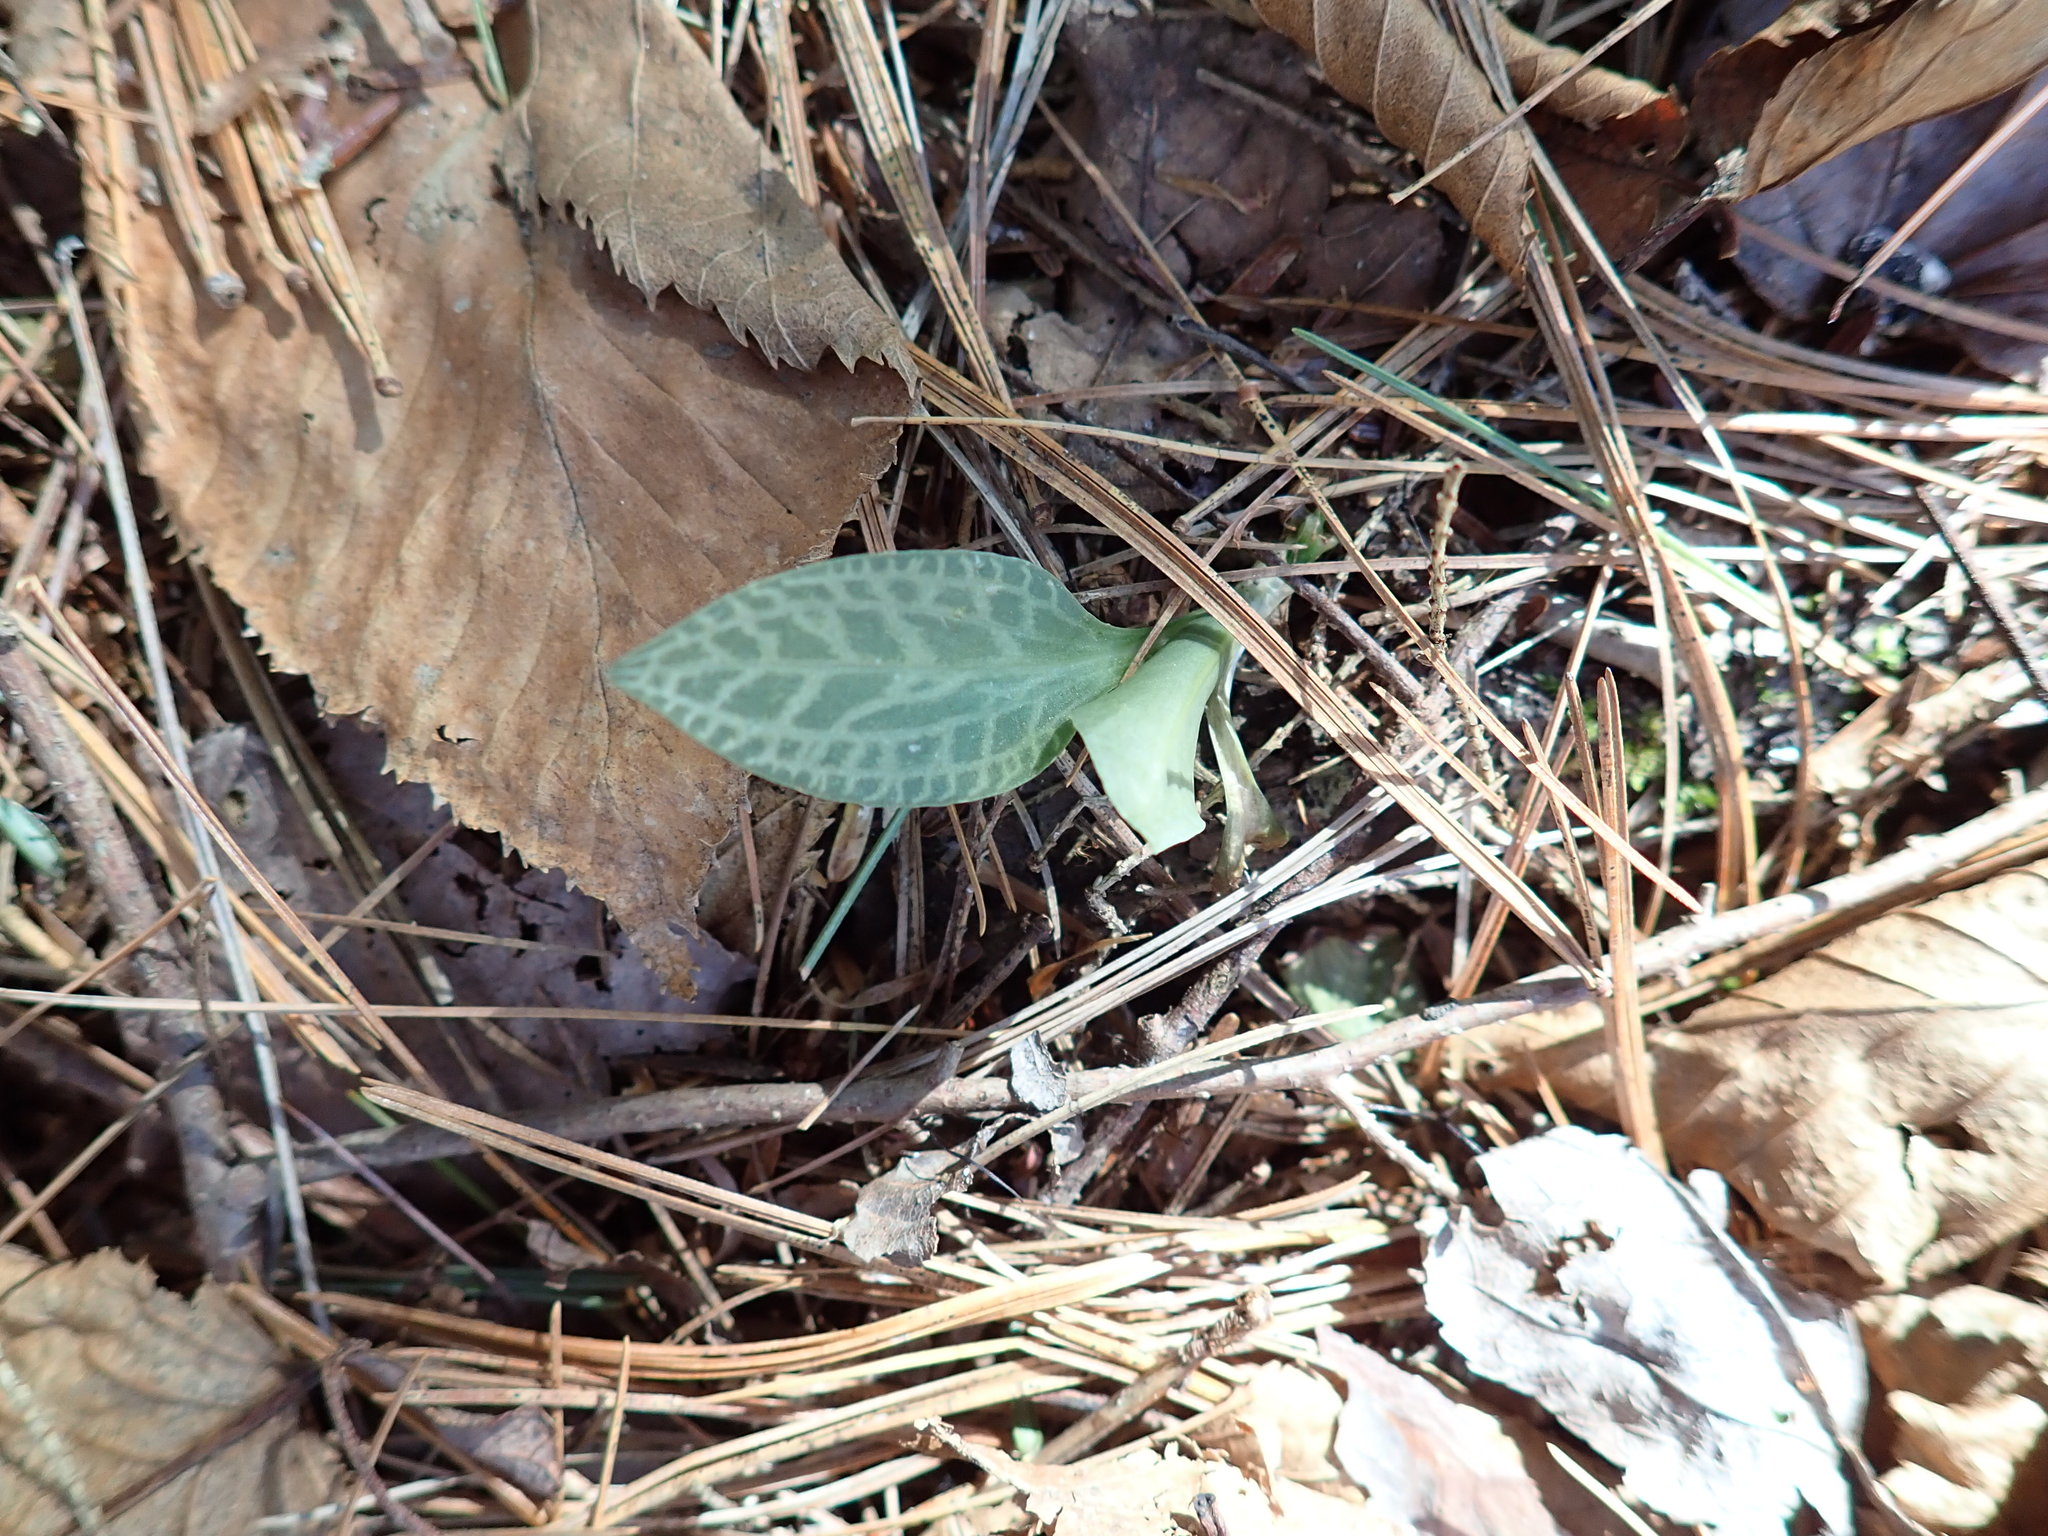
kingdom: Plantae
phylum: Tracheophyta
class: Liliopsida
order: Asparagales
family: Orchidaceae
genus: Goodyera
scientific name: Goodyera tesselata
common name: Checkered rattlesnake-plantain
